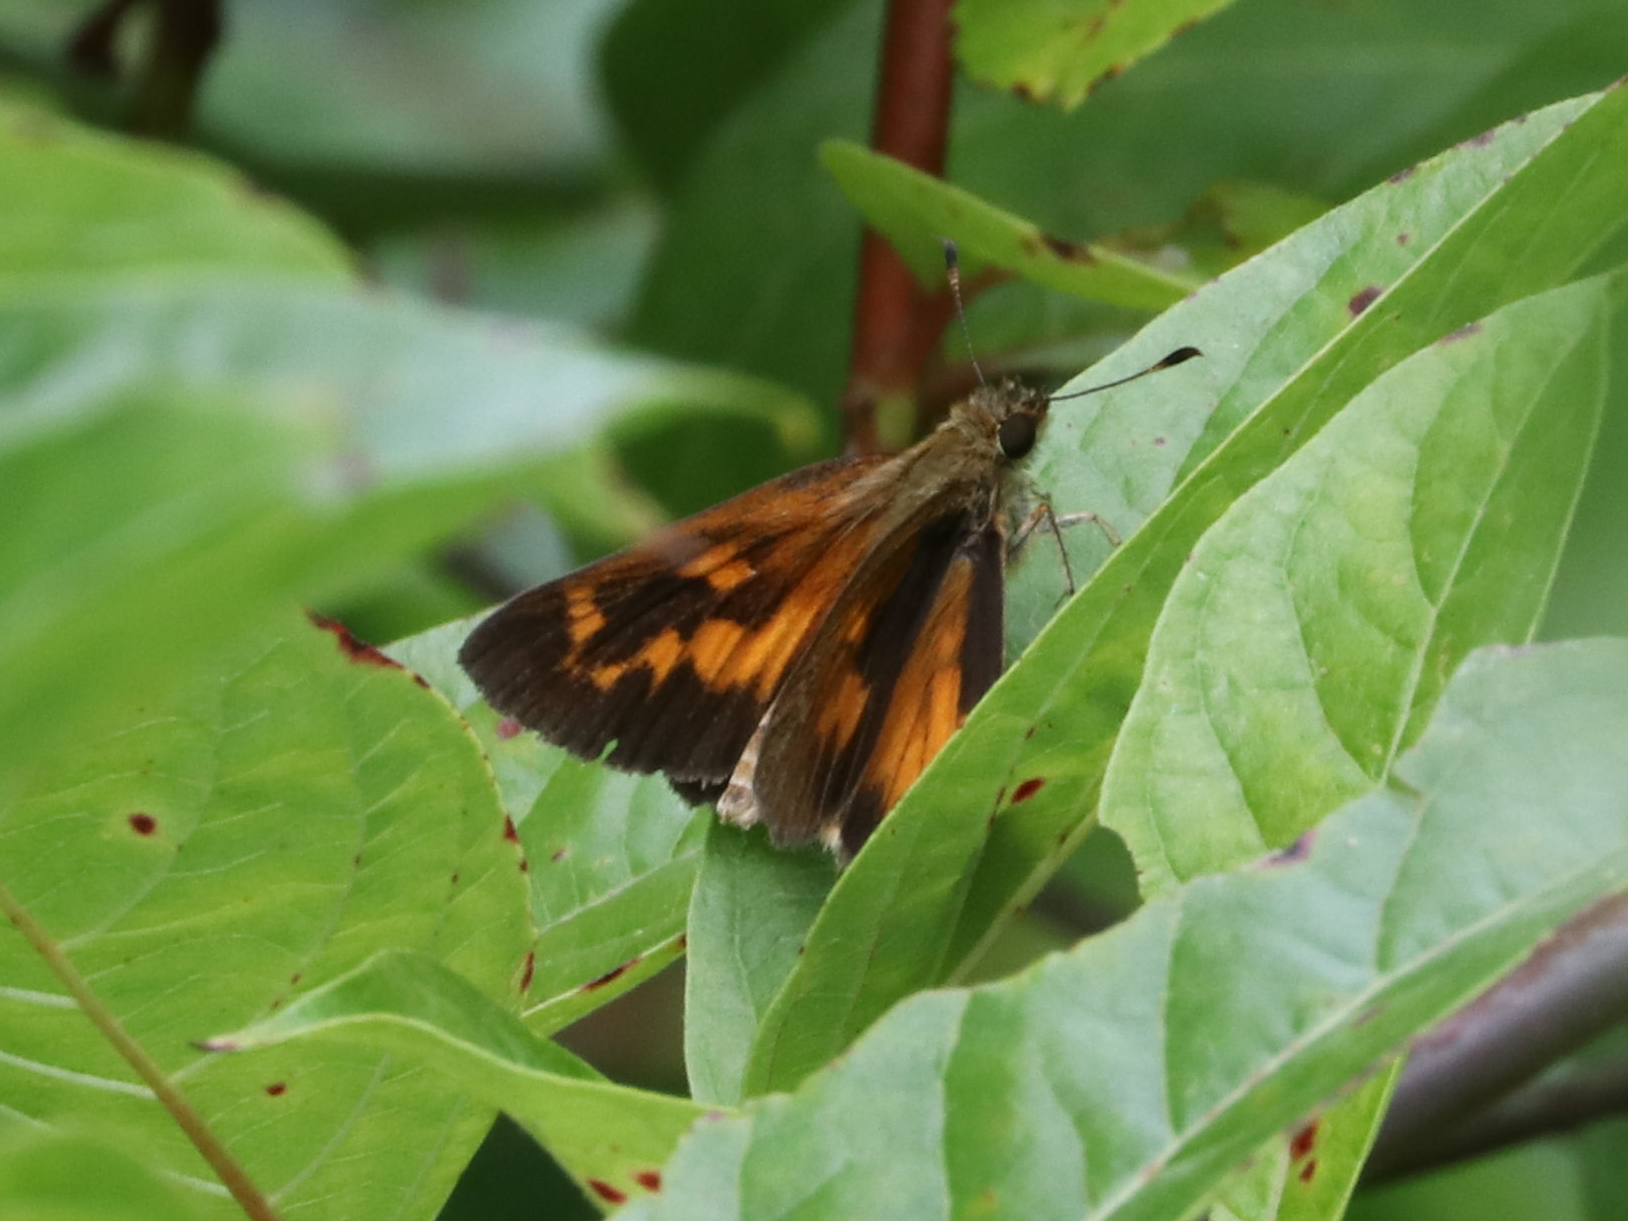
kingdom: Animalia
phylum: Arthropoda
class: Insecta
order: Lepidoptera
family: Hesperiidae
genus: Poanes
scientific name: Poanes viator
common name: Broad-winged skipper
